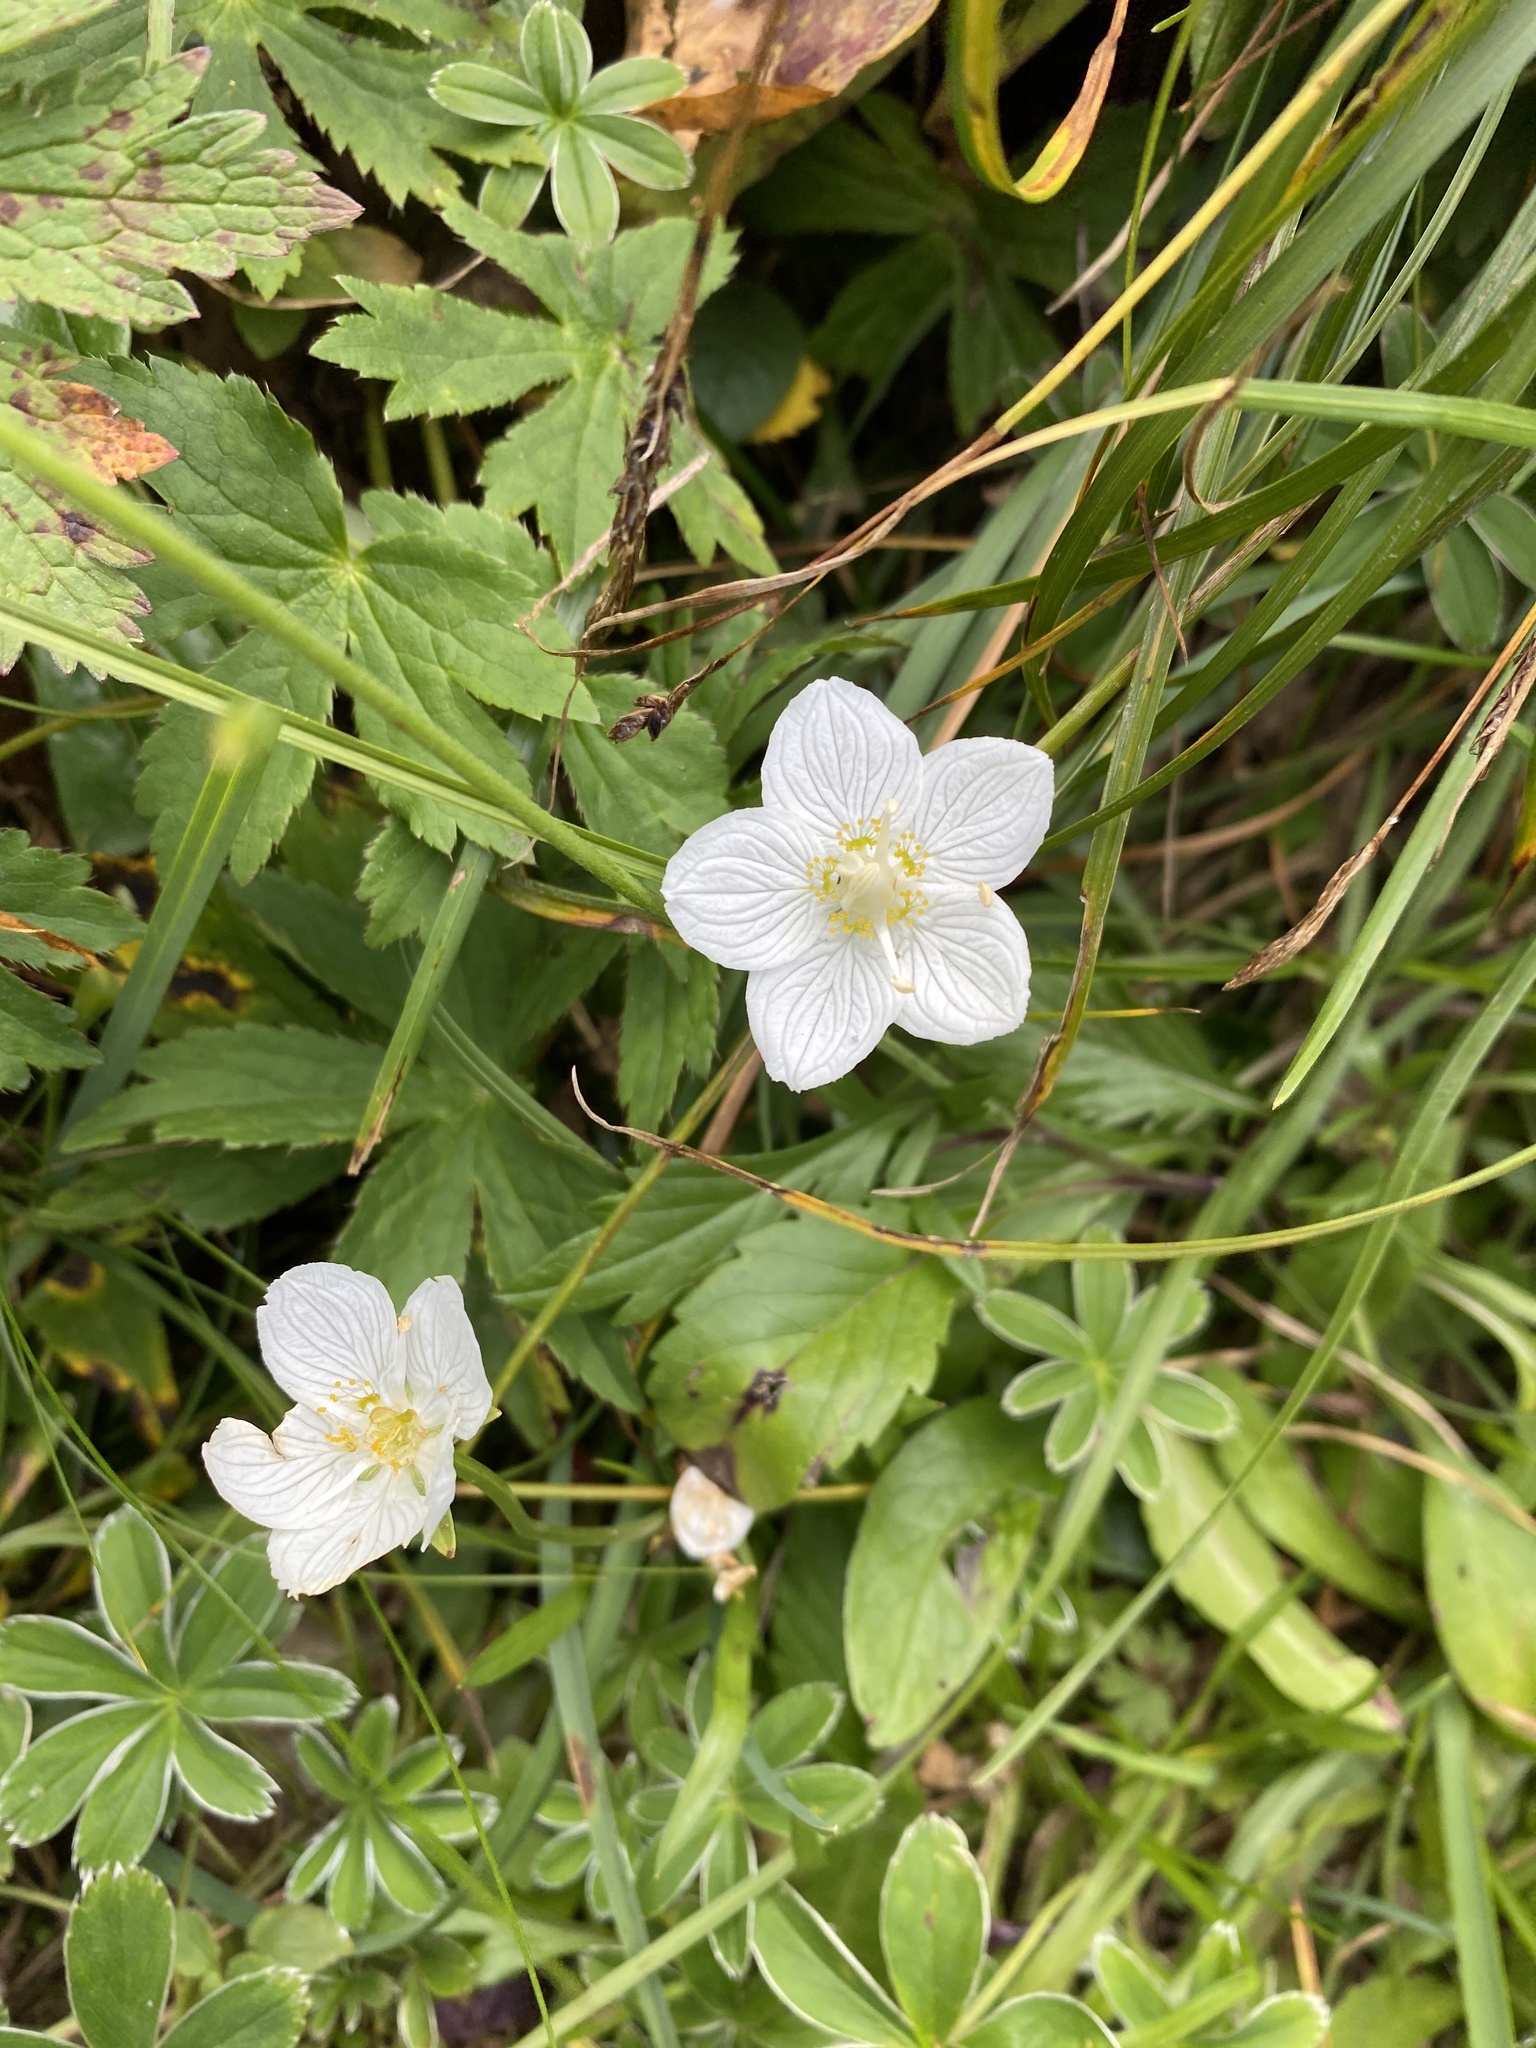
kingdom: Plantae
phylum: Tracheophyta
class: Magnoliopsida
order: Celastrales
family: Parnassiaceae
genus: Parnassia
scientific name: Parnassia palustris
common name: Grass-of-parnassus
